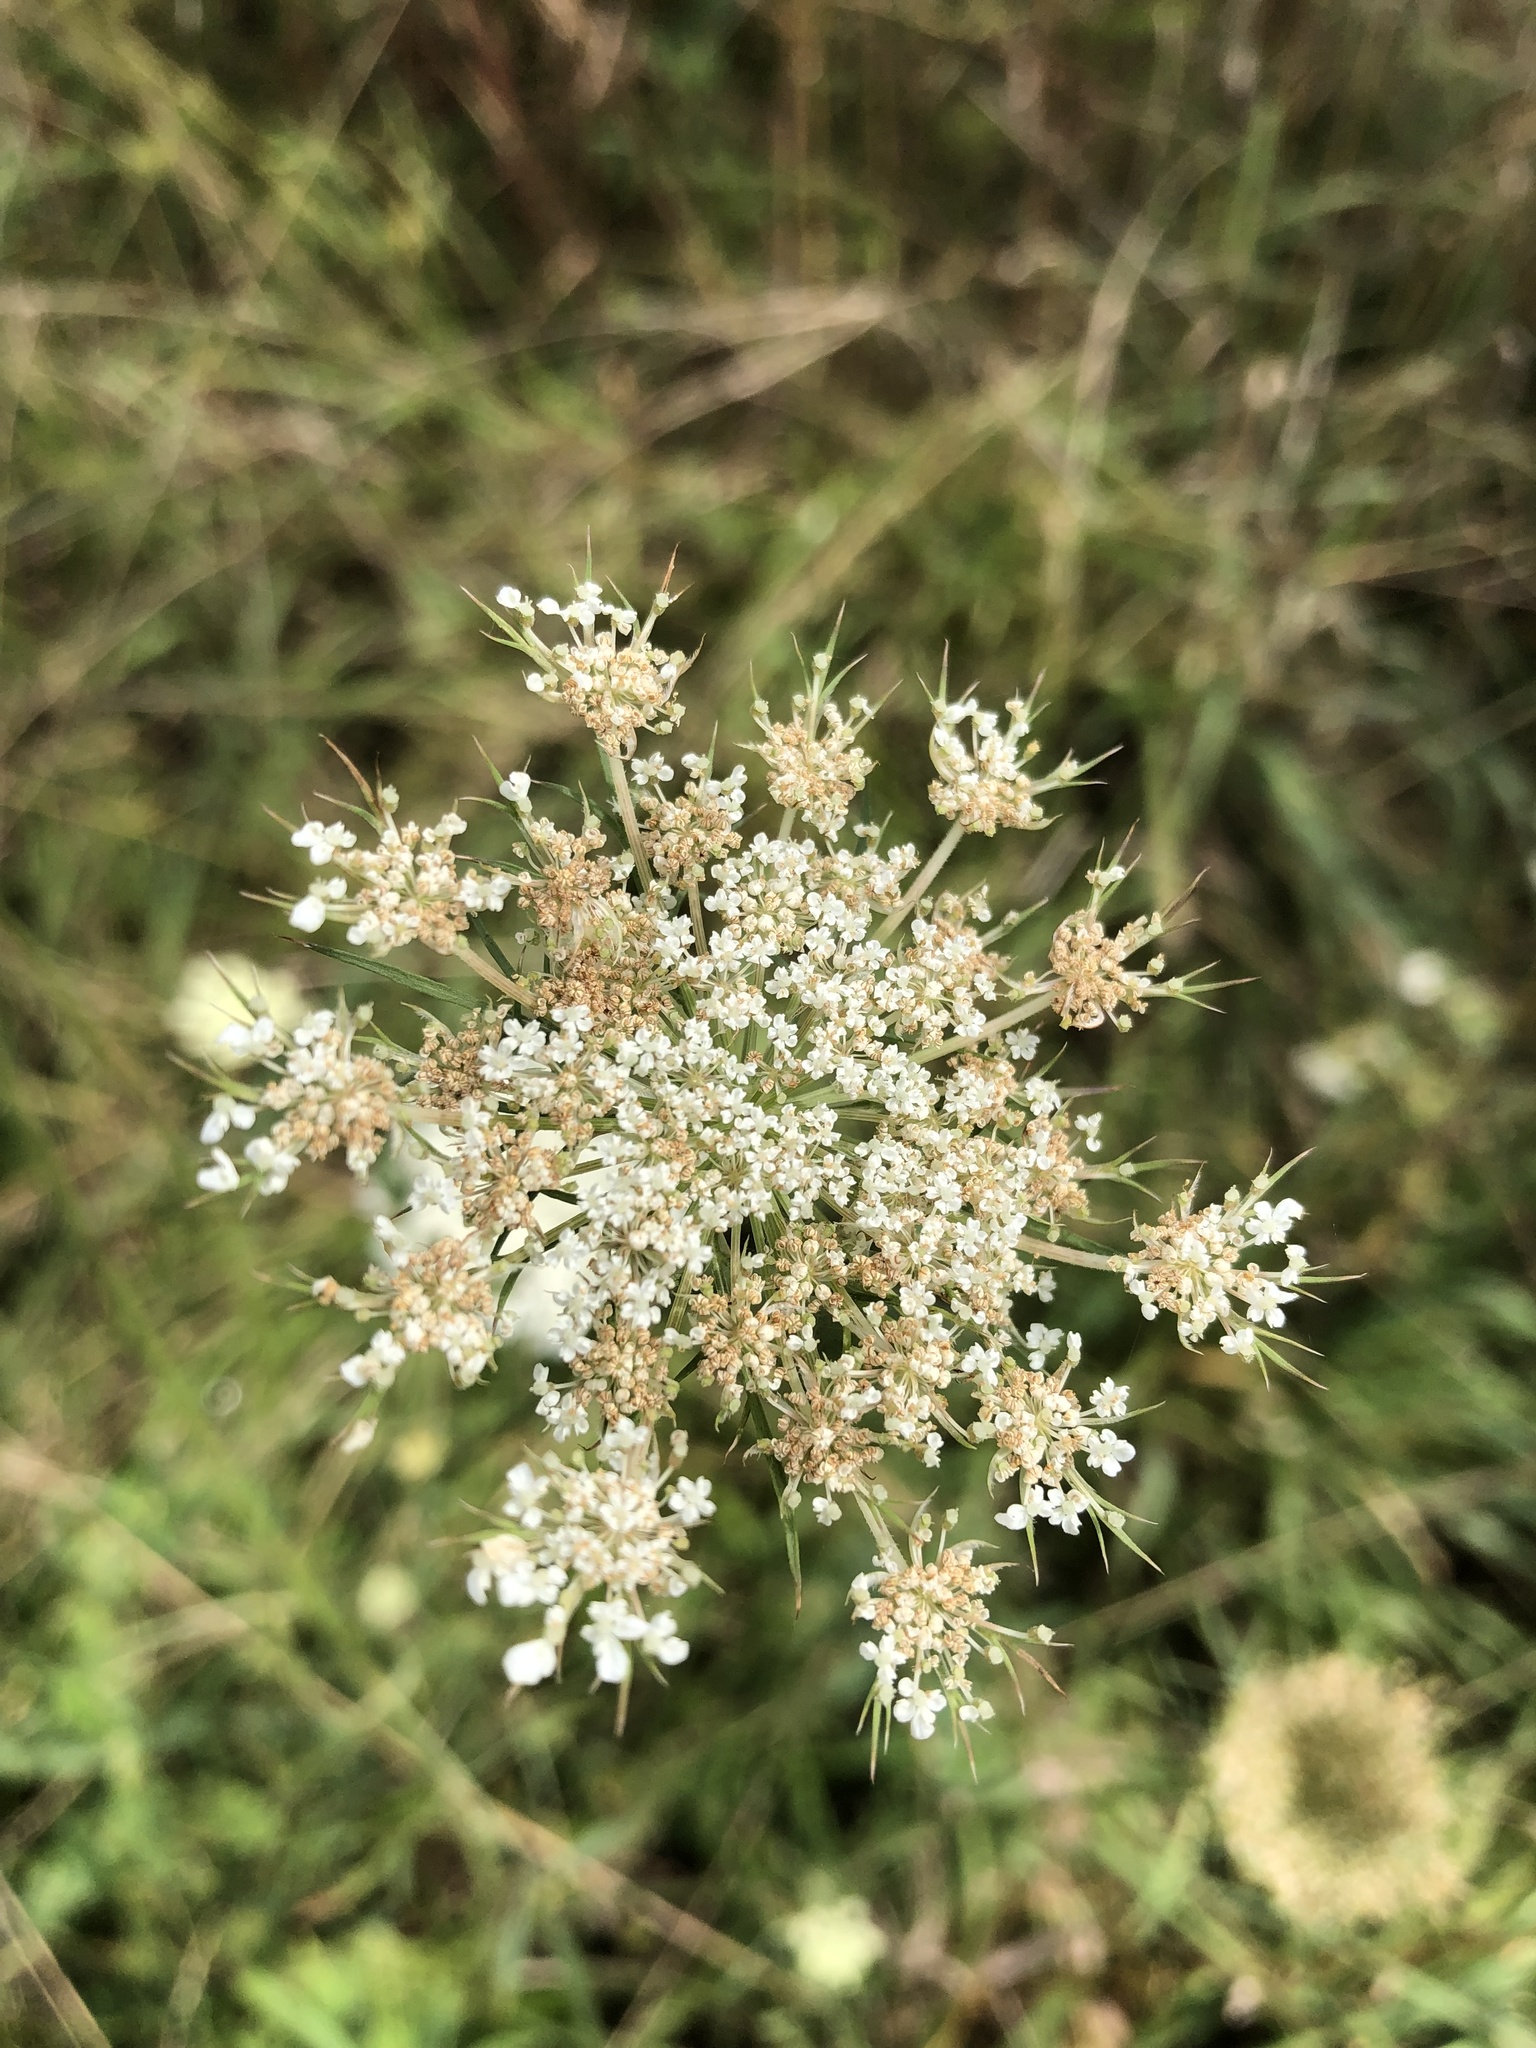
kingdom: Plantae
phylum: Tracheophyta
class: Magnoliopsida
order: Apiales
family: Apiaceae
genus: Daucus
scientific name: Daucus carota
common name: Wild carrot
